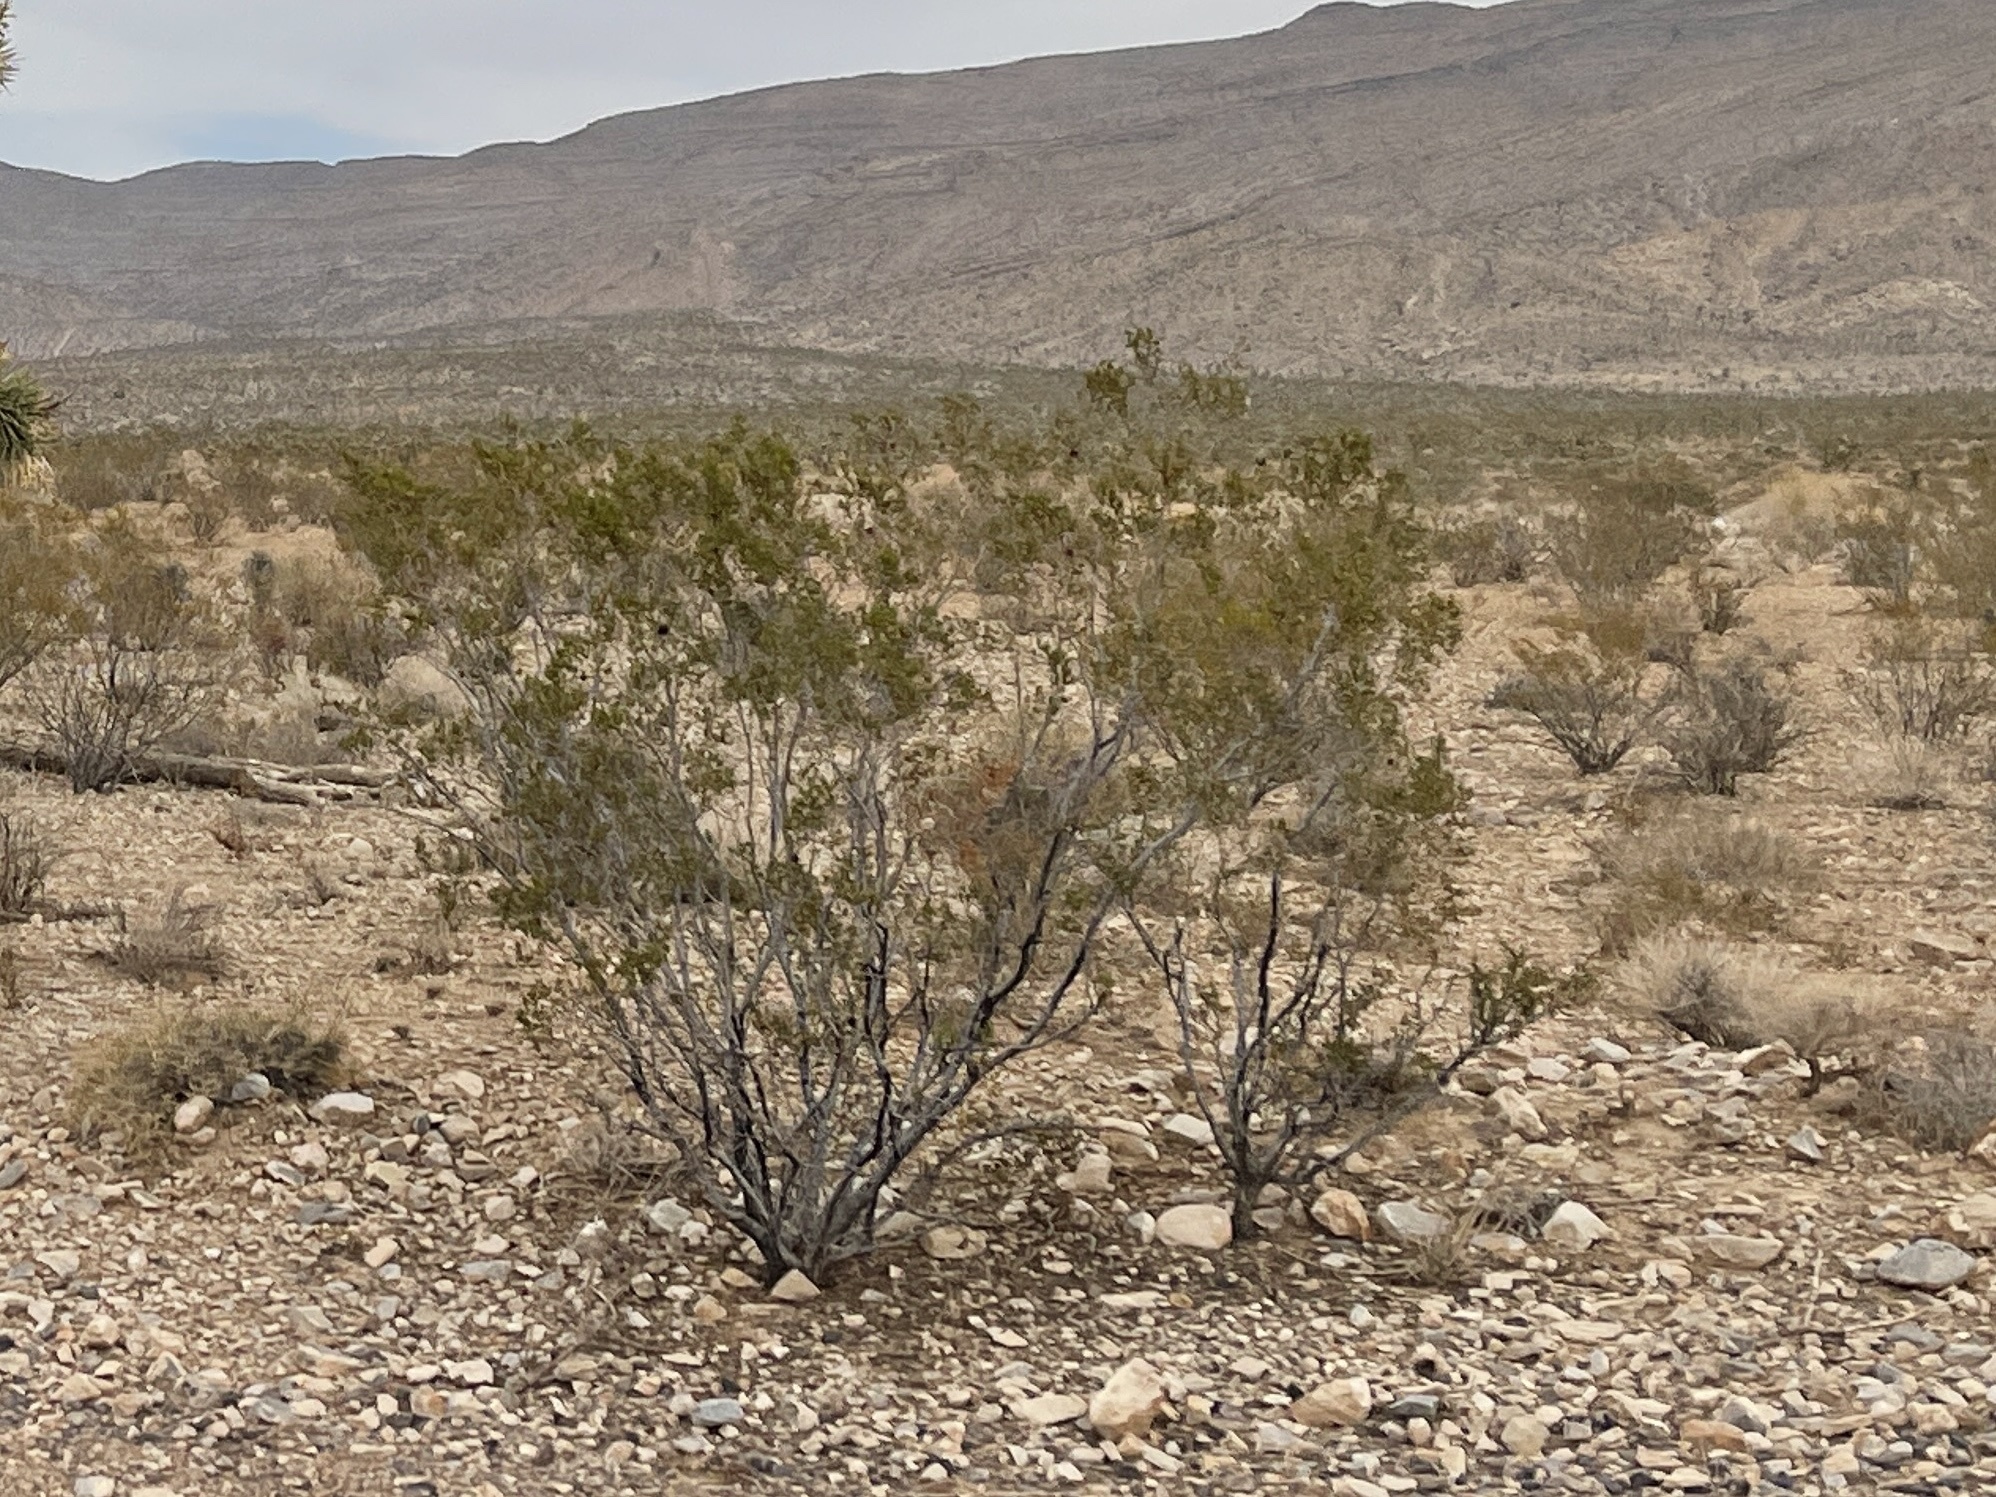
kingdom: Plantae
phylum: Tracheophyta
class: Magnoliopsida
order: Zygophyllales
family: Zygophyllaceae
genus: Larrea
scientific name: Larrea tridentata
